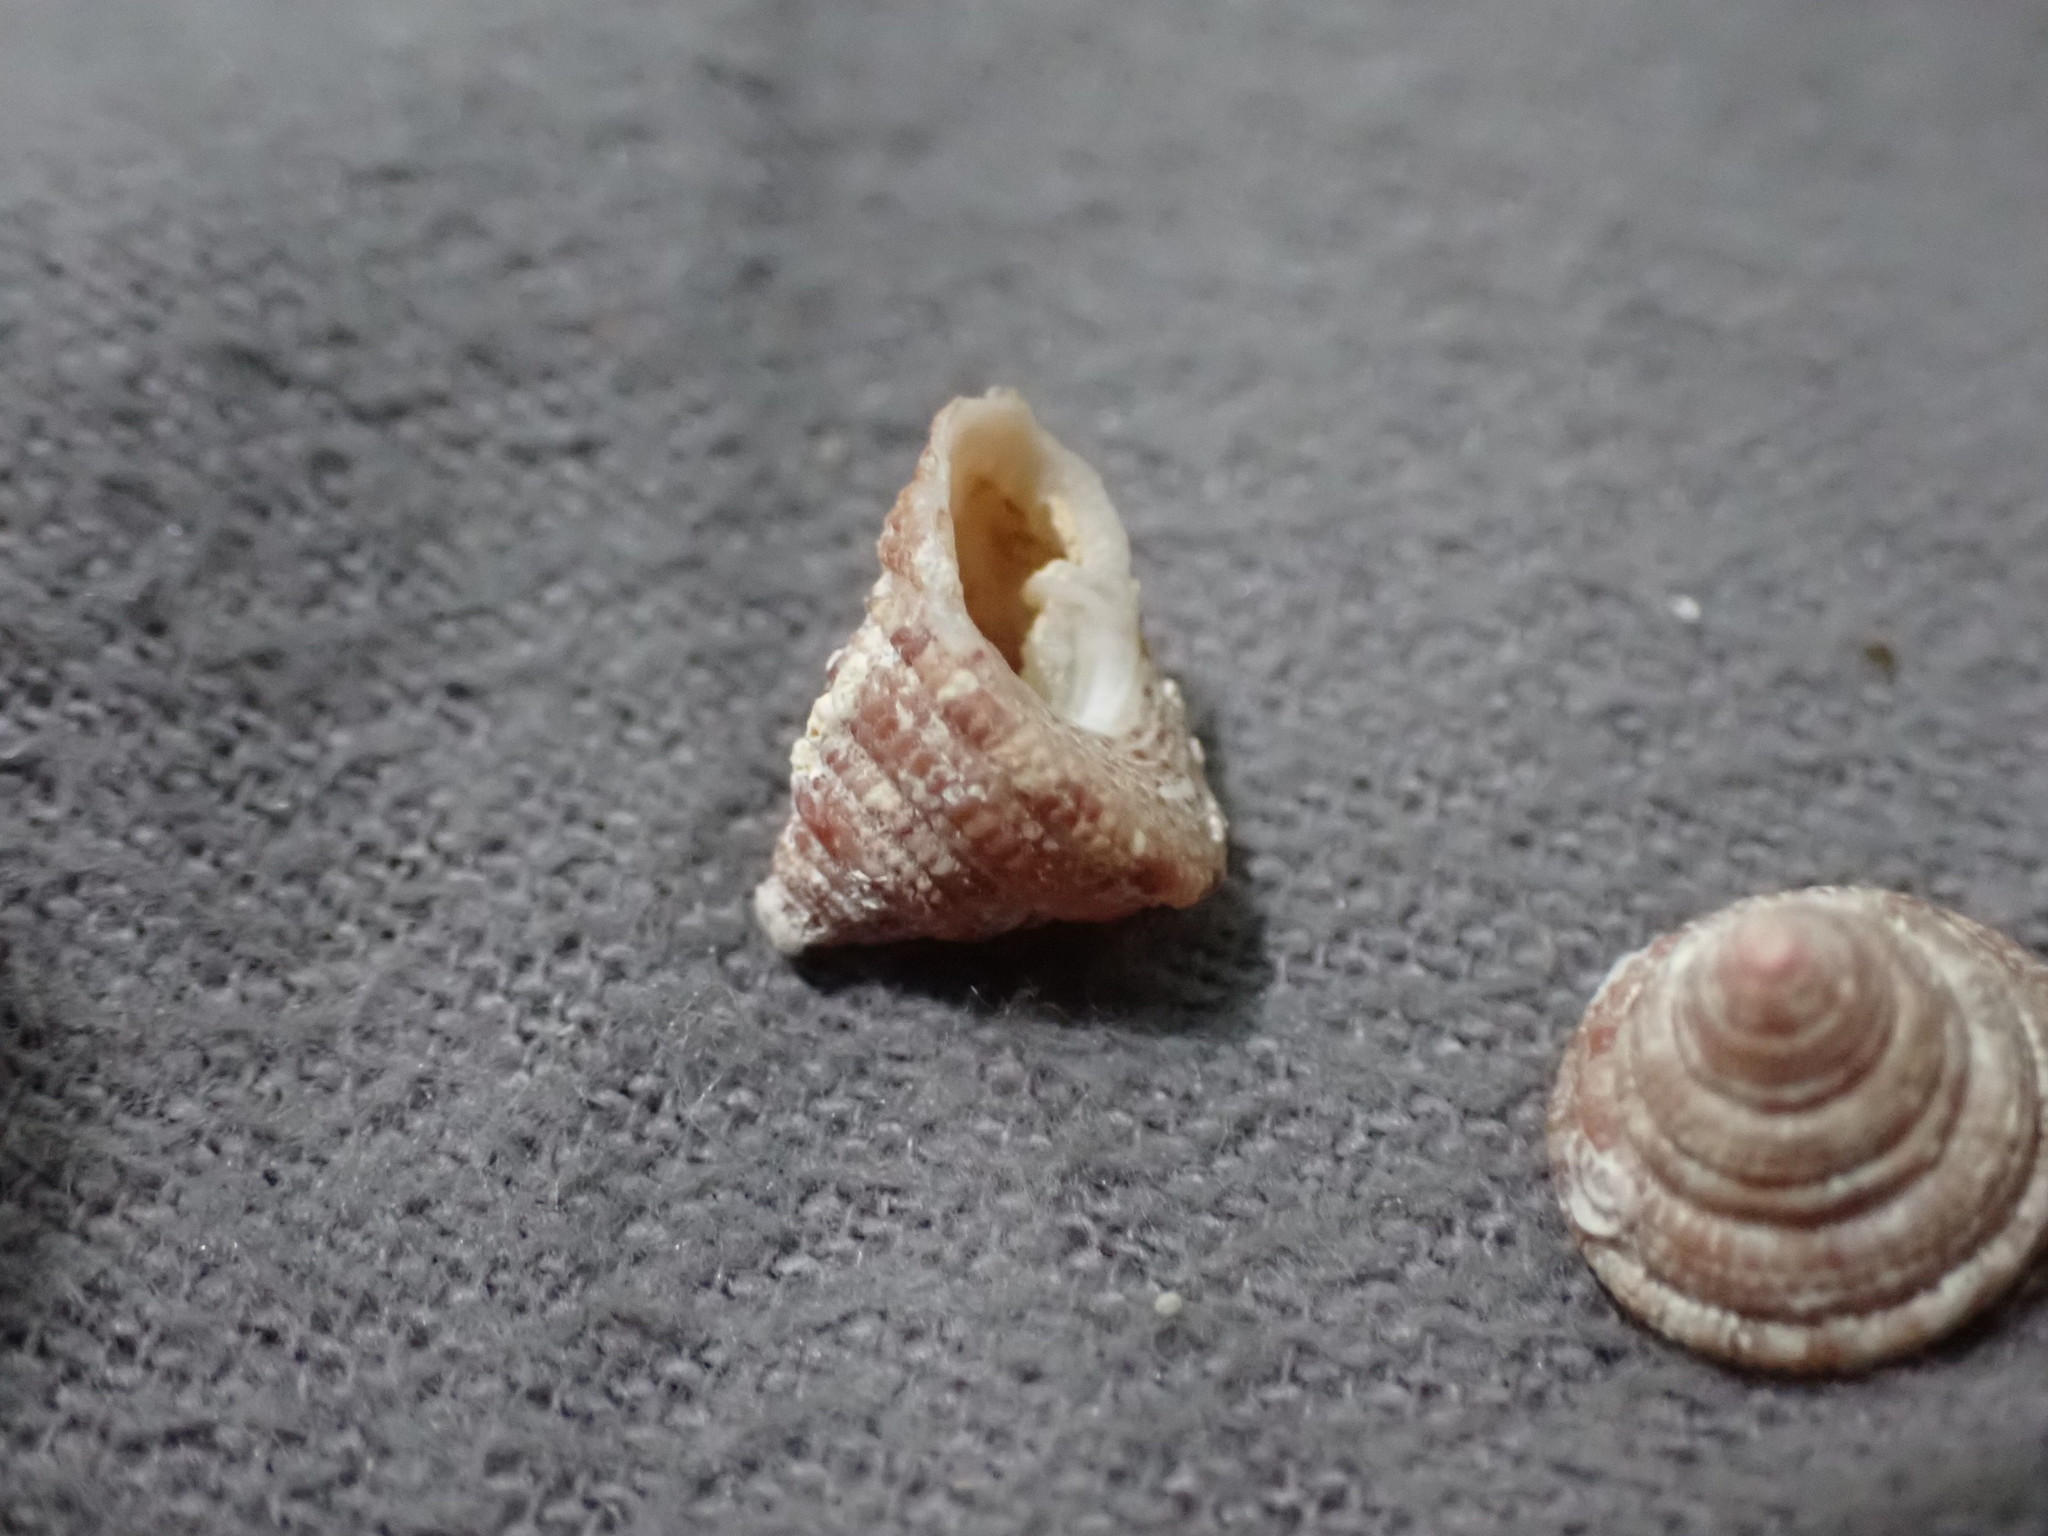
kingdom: Animalia
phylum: Mollusca
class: Gastropoda
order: Trochida
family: Trochidae
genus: Clanculus
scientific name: Clanculus peccatus
